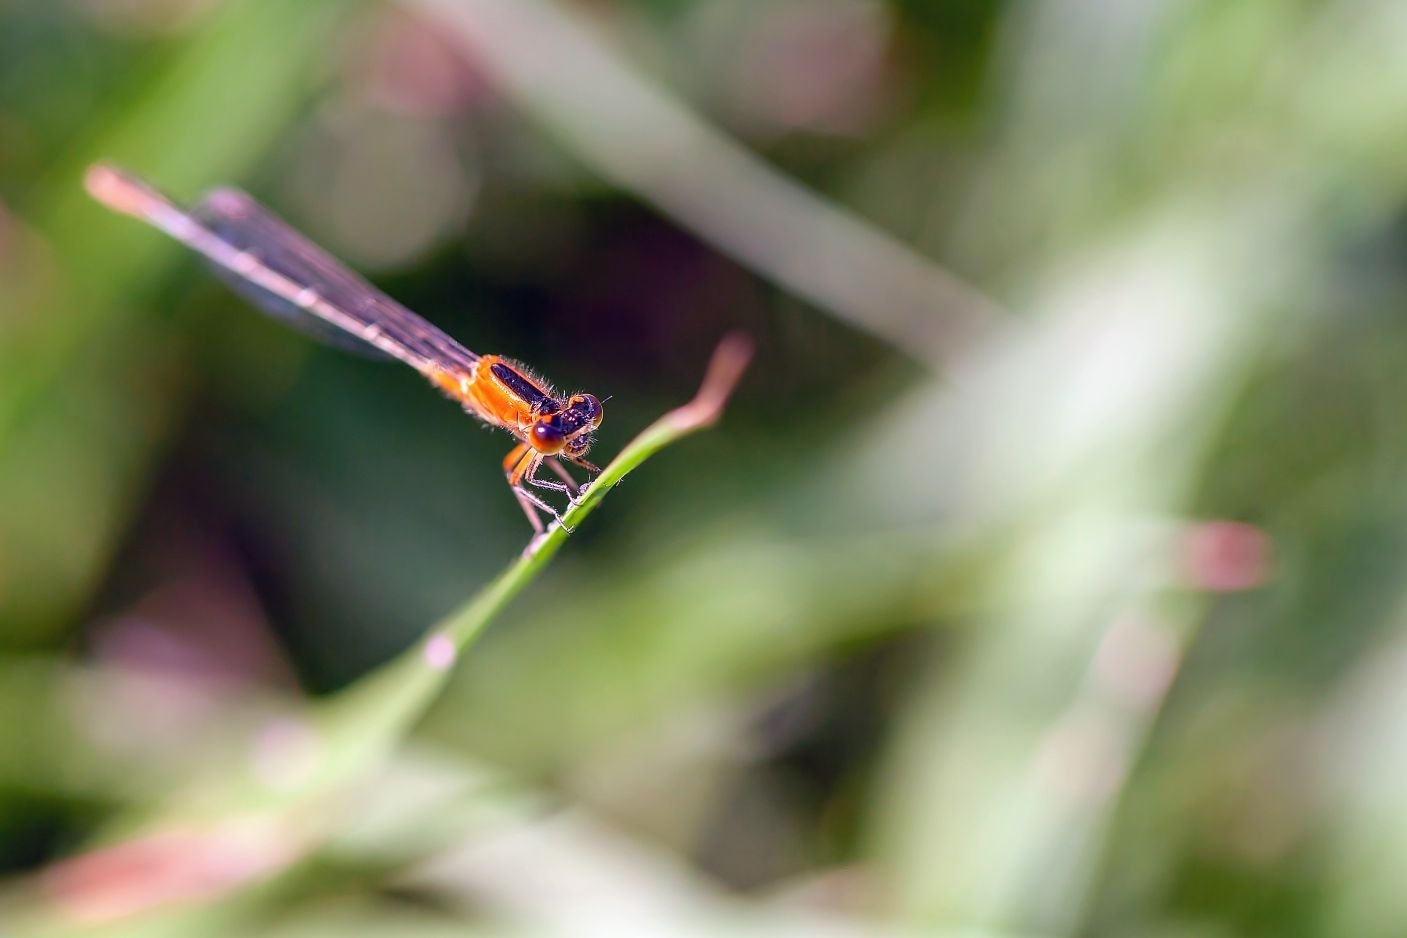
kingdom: Animalia
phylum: Arthropoda
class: Insecta
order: Odonata
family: Coenagrionidae
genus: Ischnura
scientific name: Ischnura ramburii
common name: Rambur's forktail
